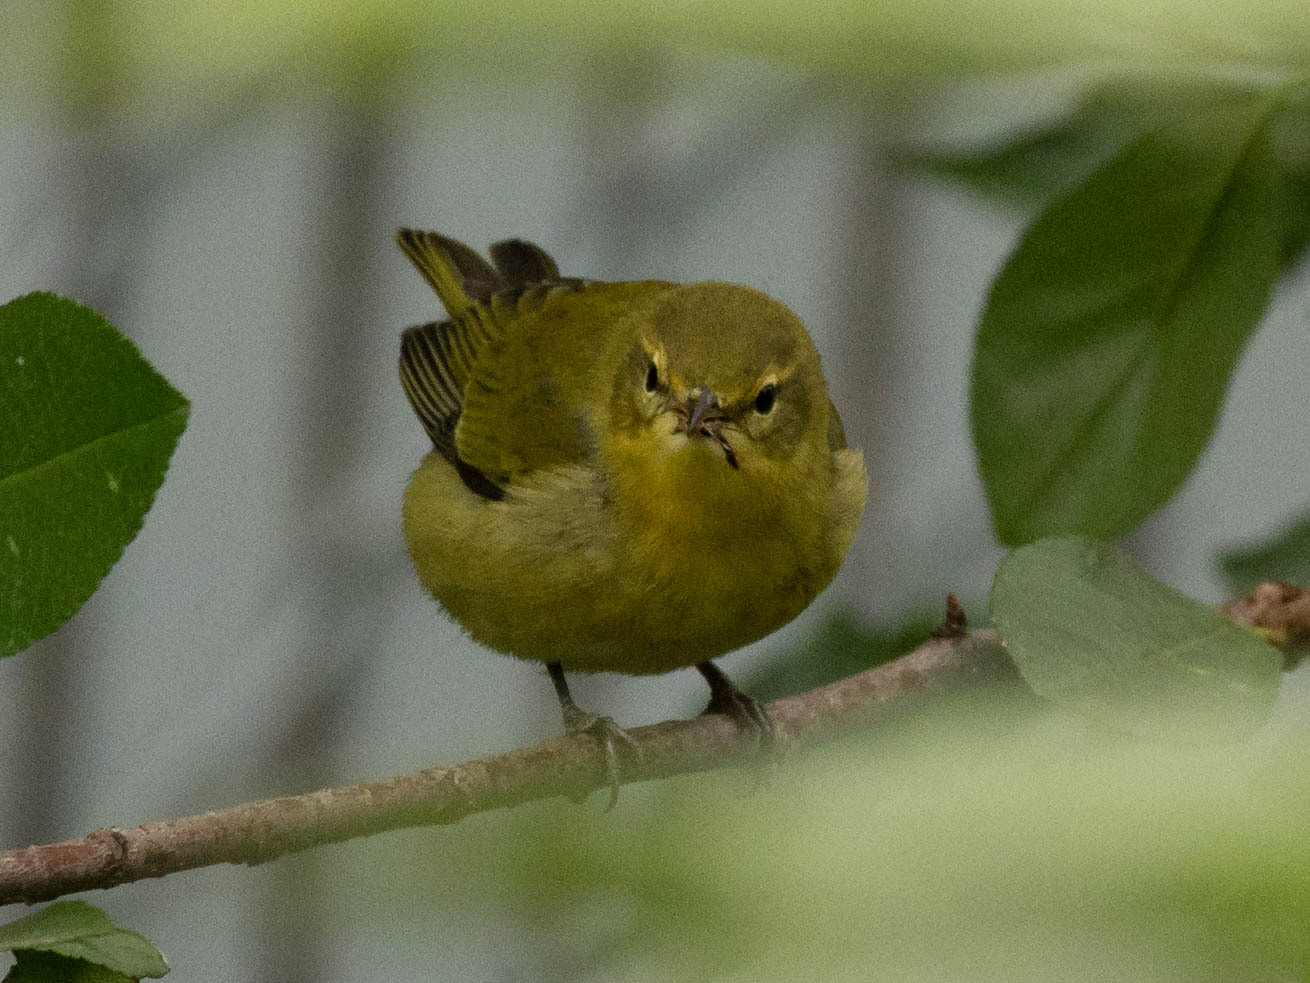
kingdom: Animalia
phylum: Chordata
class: Aves
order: Passeriformes
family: Parulidae
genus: Leiothlypis
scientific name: Leiothlypis celata
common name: Orange-crowned warbler
